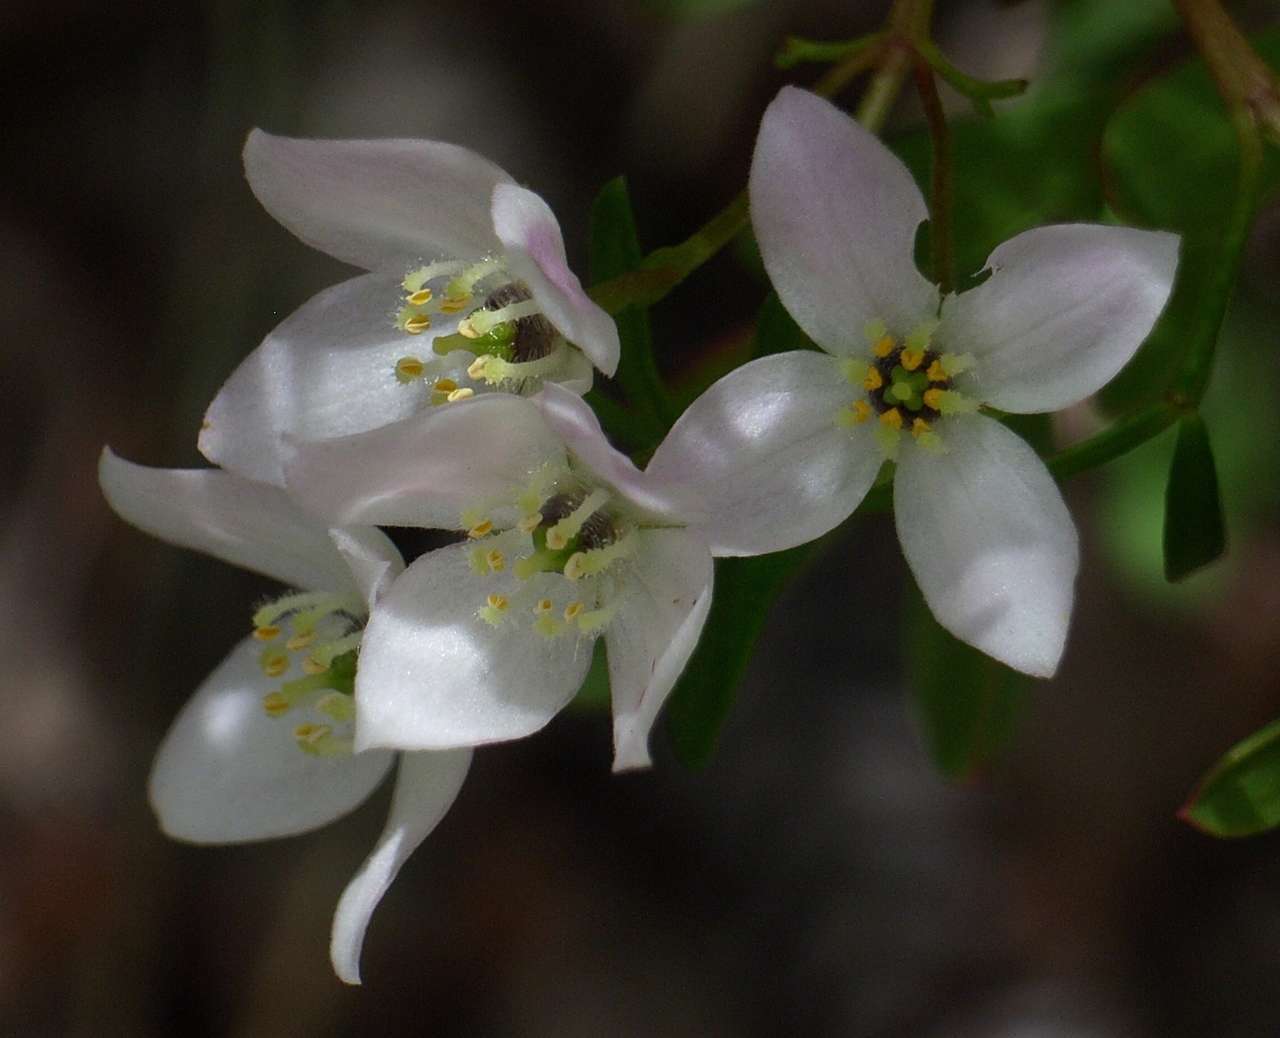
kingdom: Plantae
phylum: Tracheophyta
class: Magnoliopsida
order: Sapindales
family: Rutaceae
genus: Boronia
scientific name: Boronia muelleri
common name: Forest boronia
